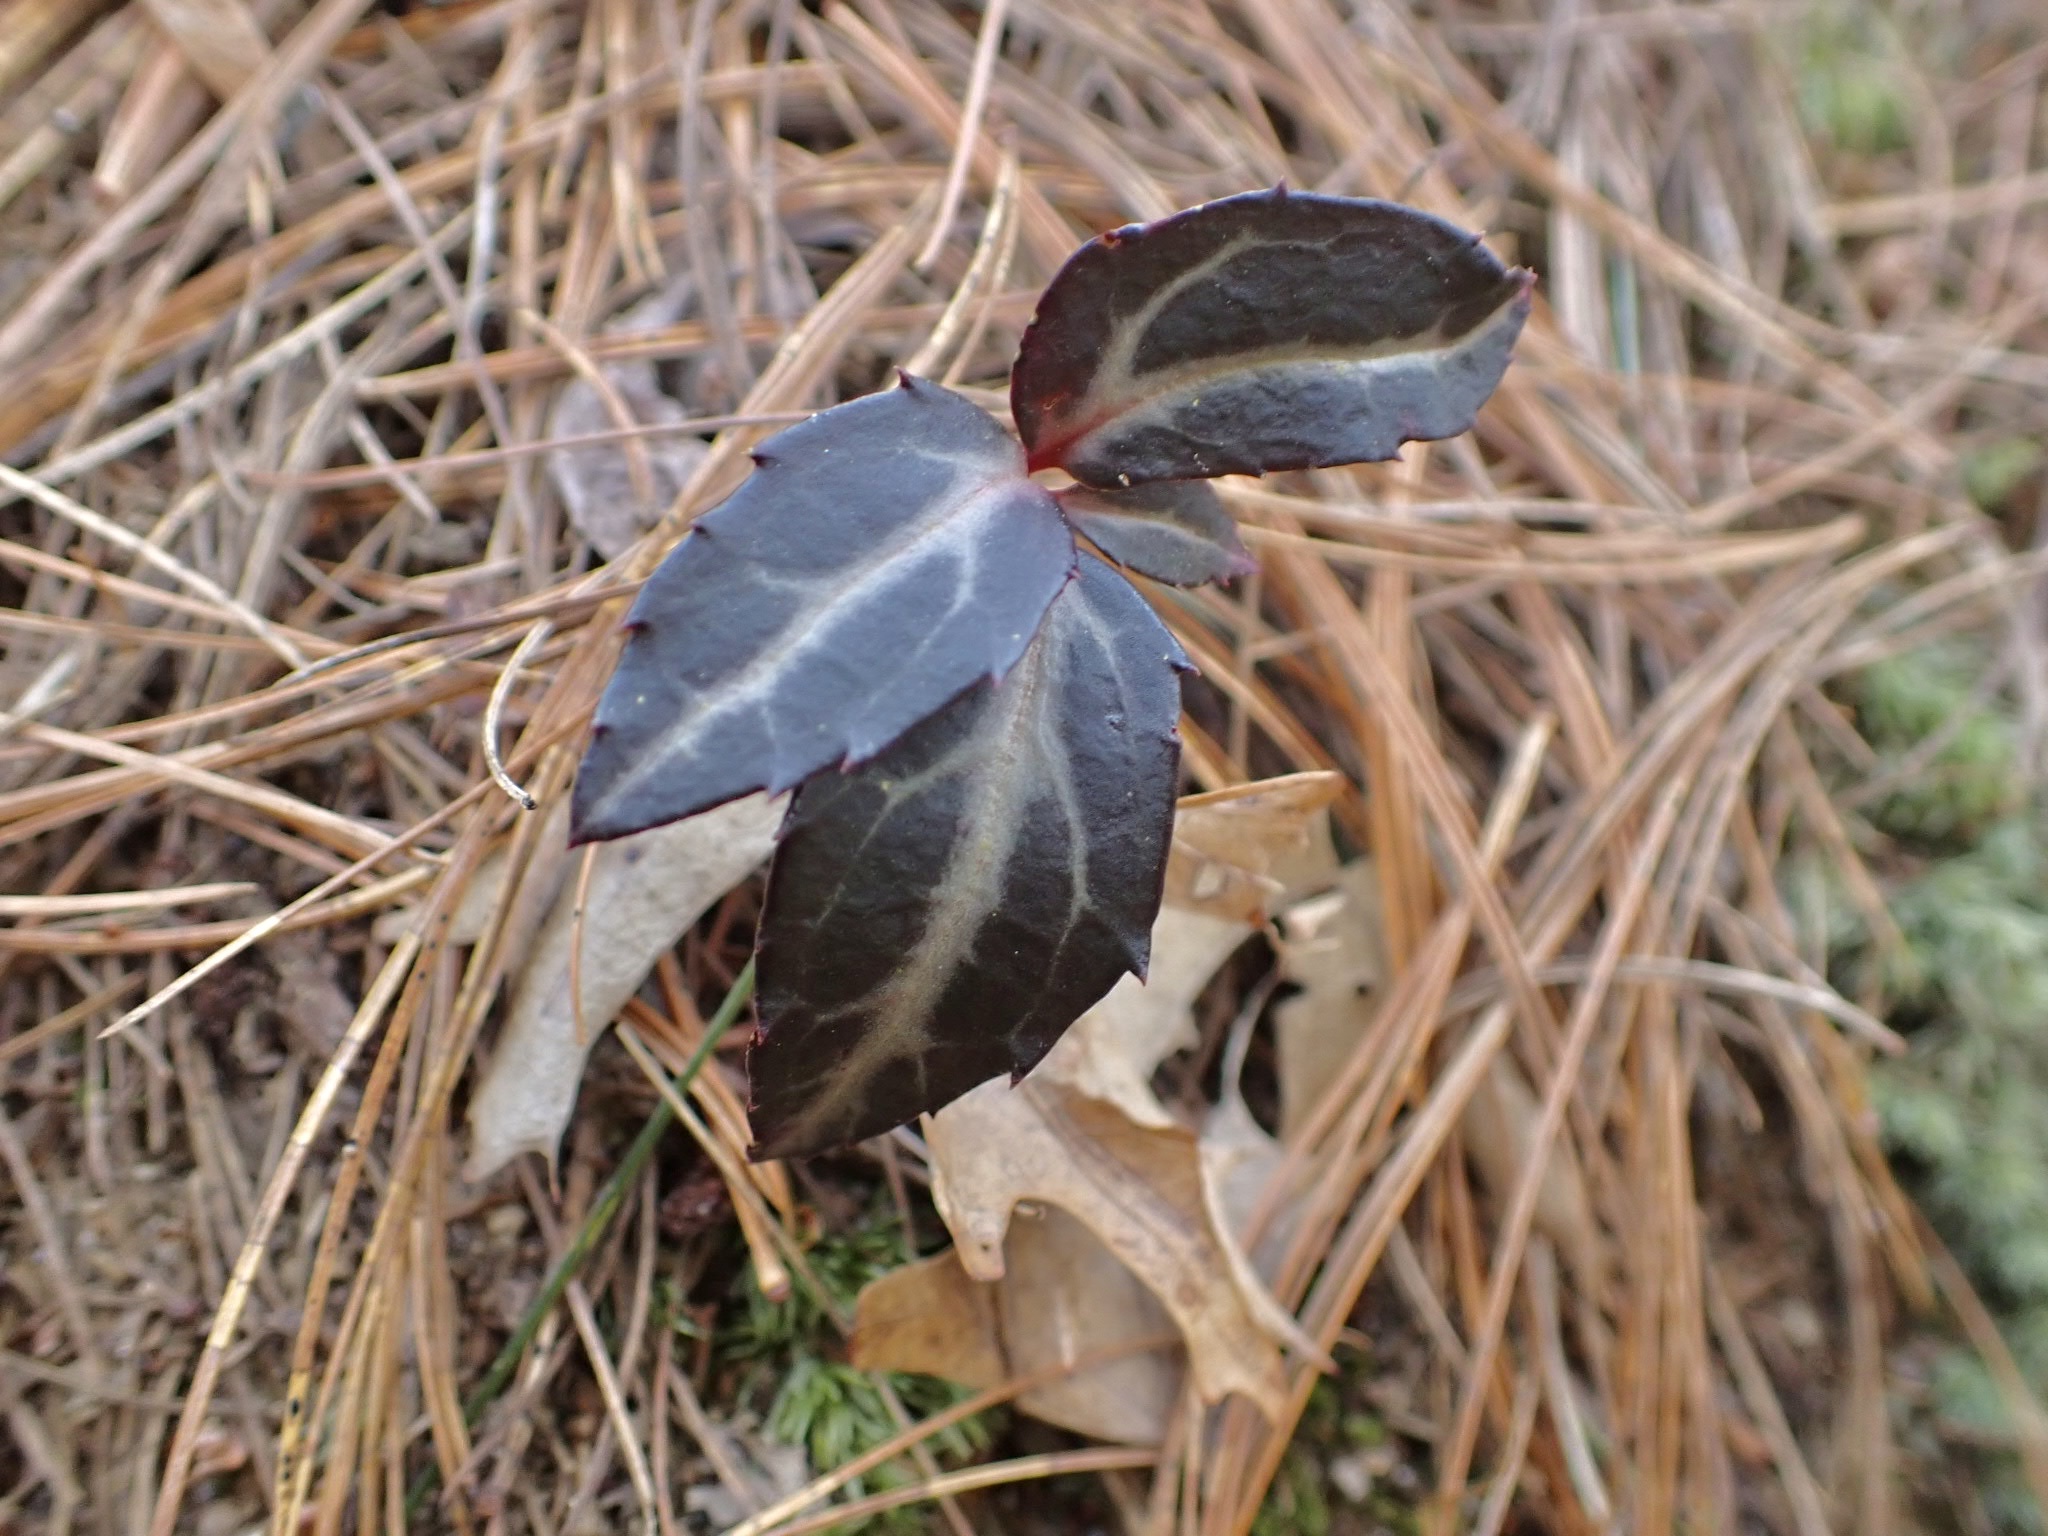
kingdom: Plantae
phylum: Tracheophyta
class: Magnoliopsida
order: Ericales
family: Ericaceae
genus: Chimaphila
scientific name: Chimaphila maculata
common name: Spotted pipsissewa
